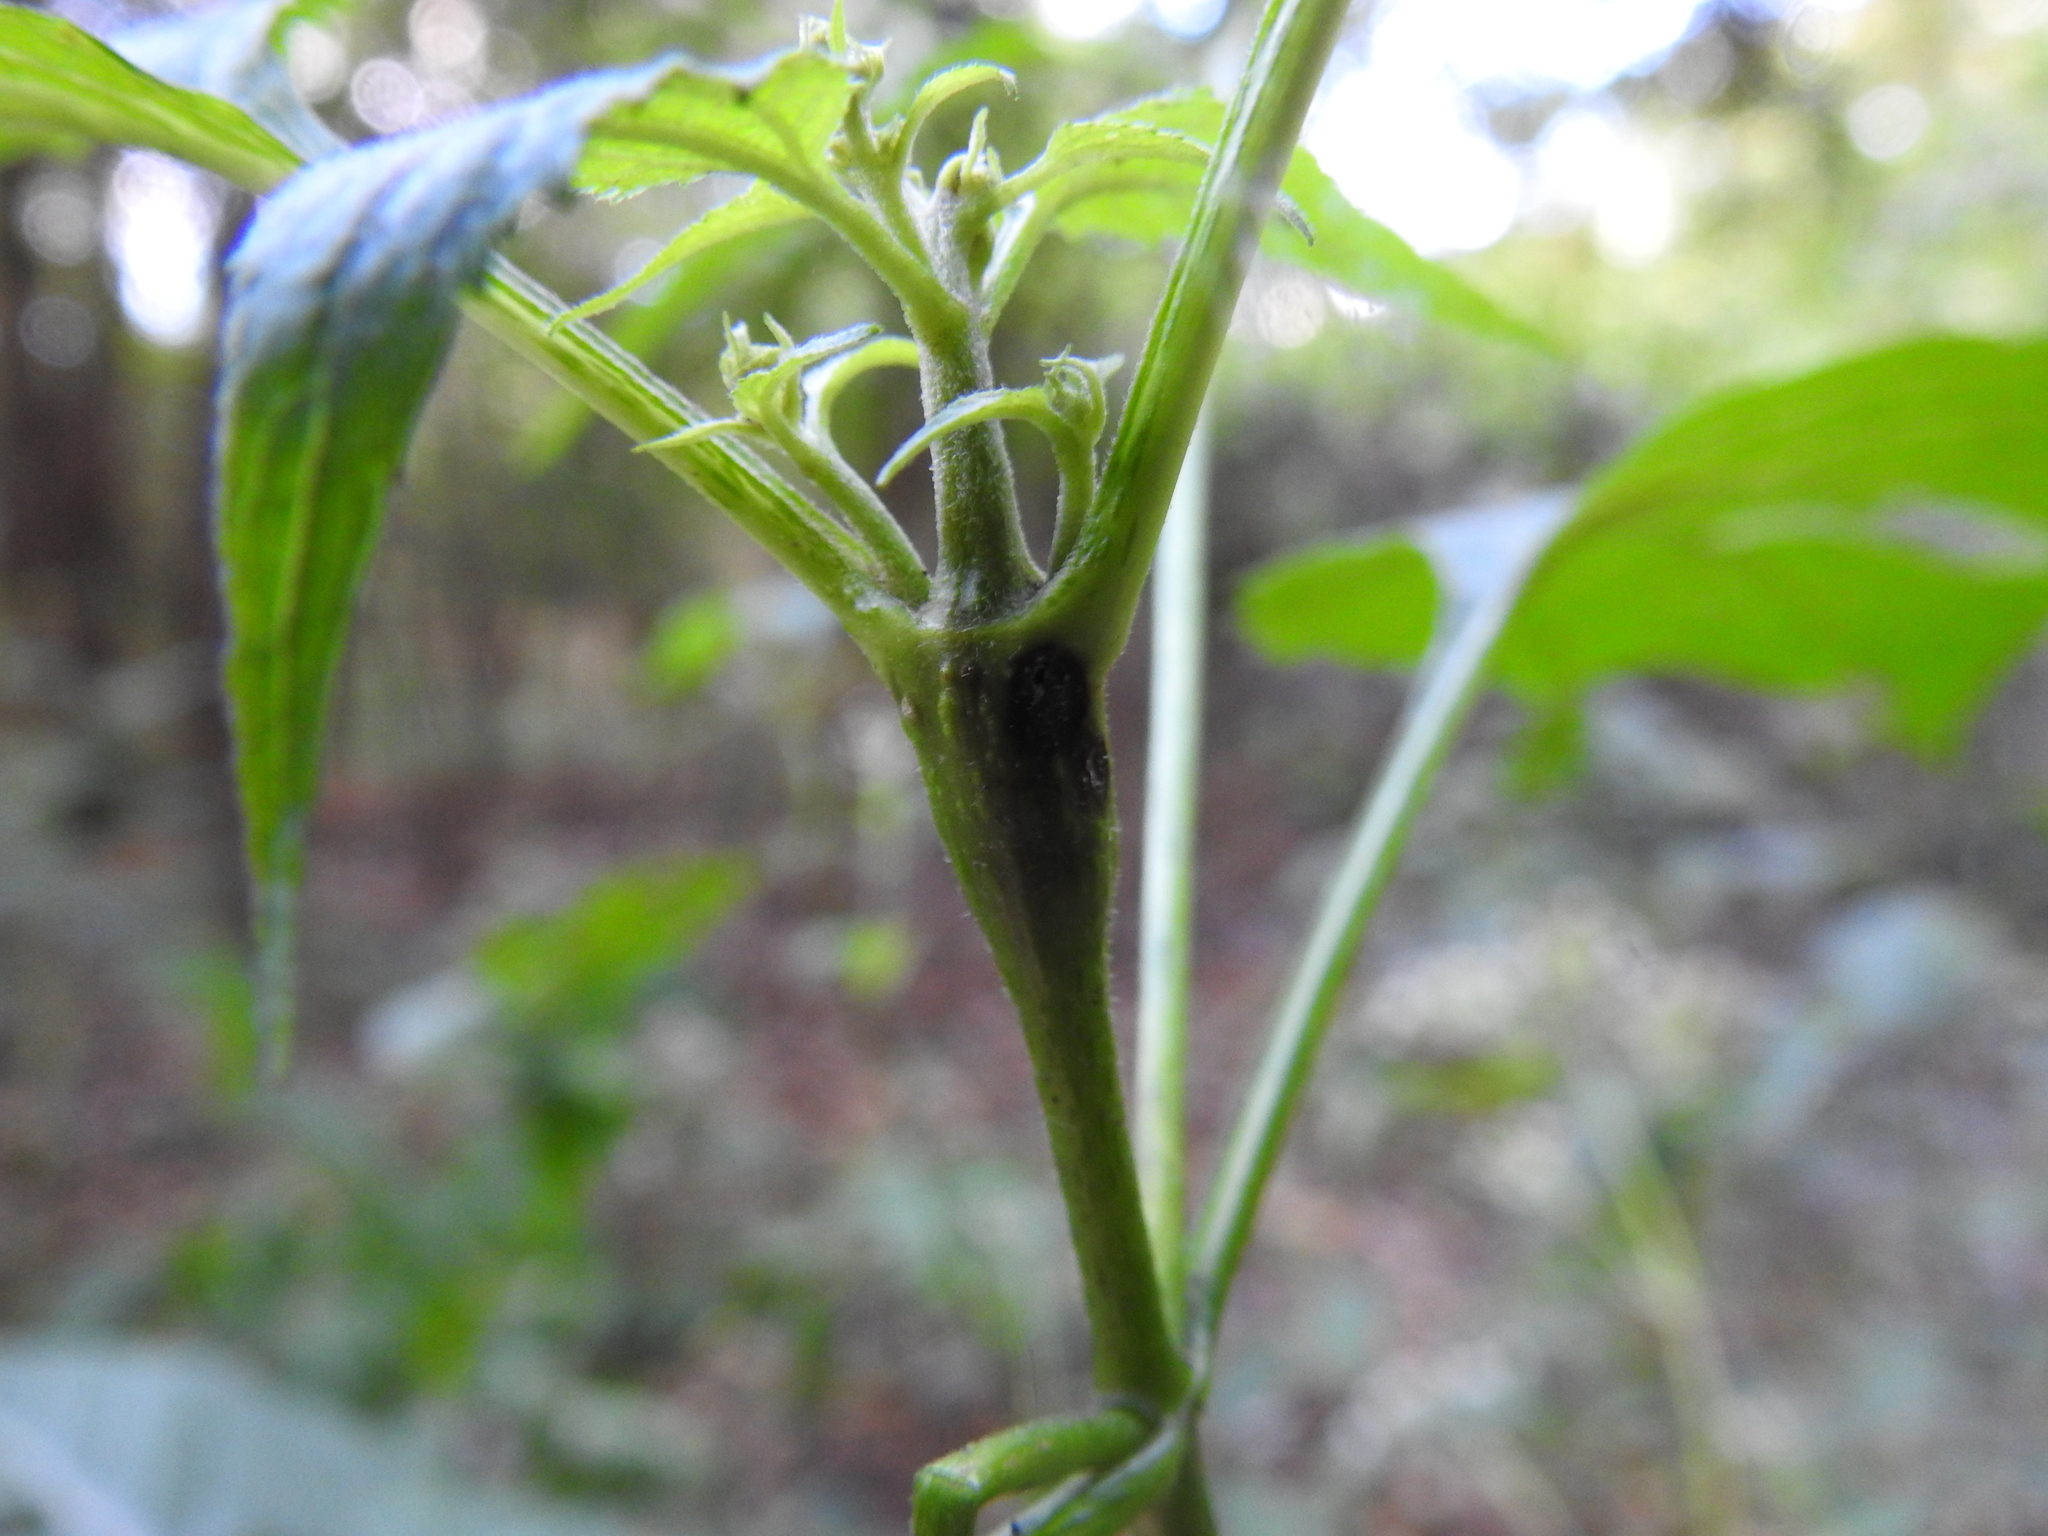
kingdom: Animalia
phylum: Arthropoda
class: Insecta
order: Diptera
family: Cecidomyiidae
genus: Neolasioptera
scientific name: Neolasioptera eupatorii
